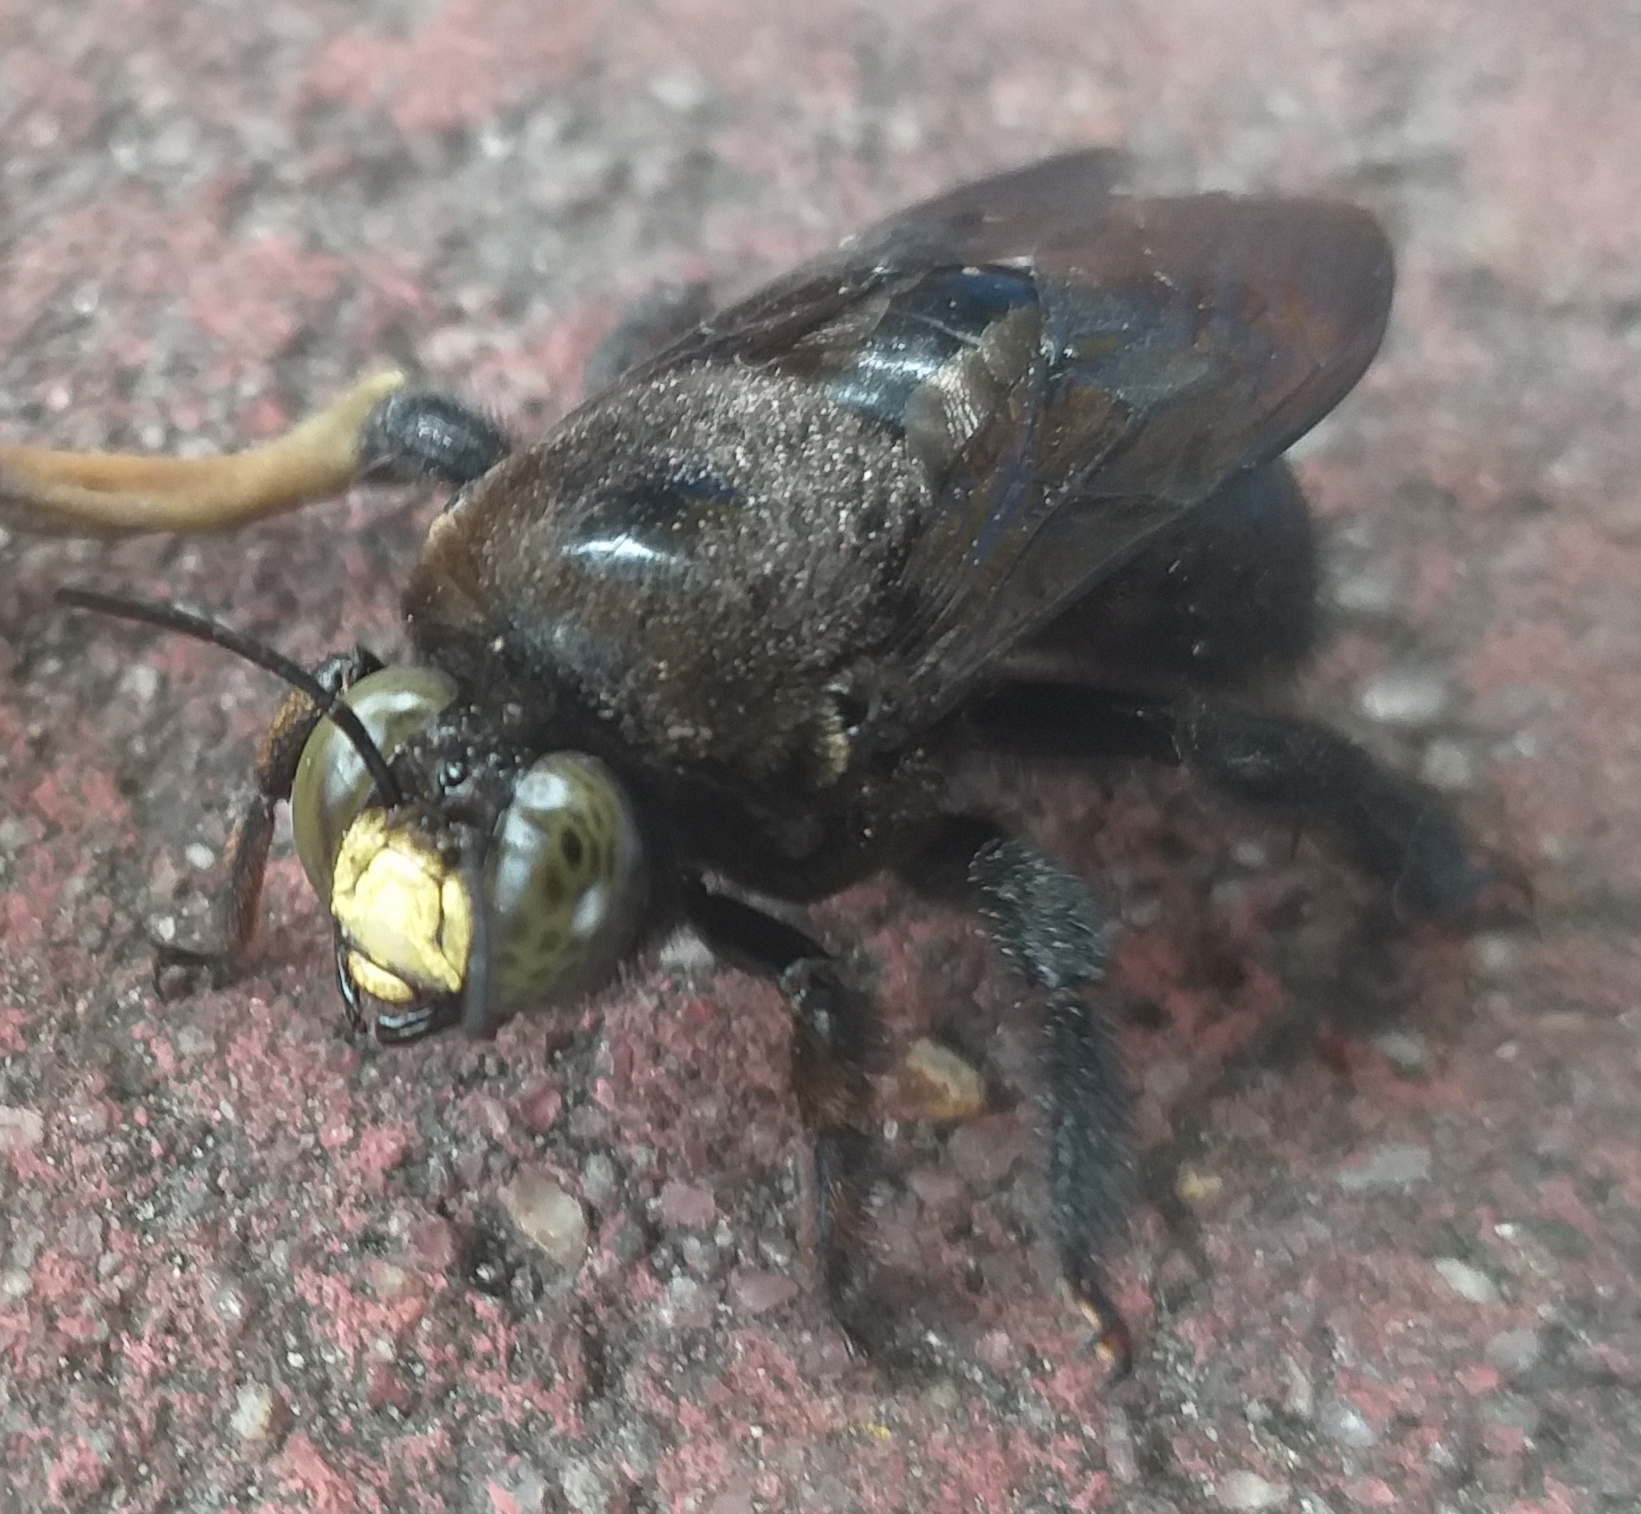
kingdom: Animalia
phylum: Arthropoda
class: Insecta
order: Hymenoptera
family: Apidae
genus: Xylocopa
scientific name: Xylocopa guatemalensis
